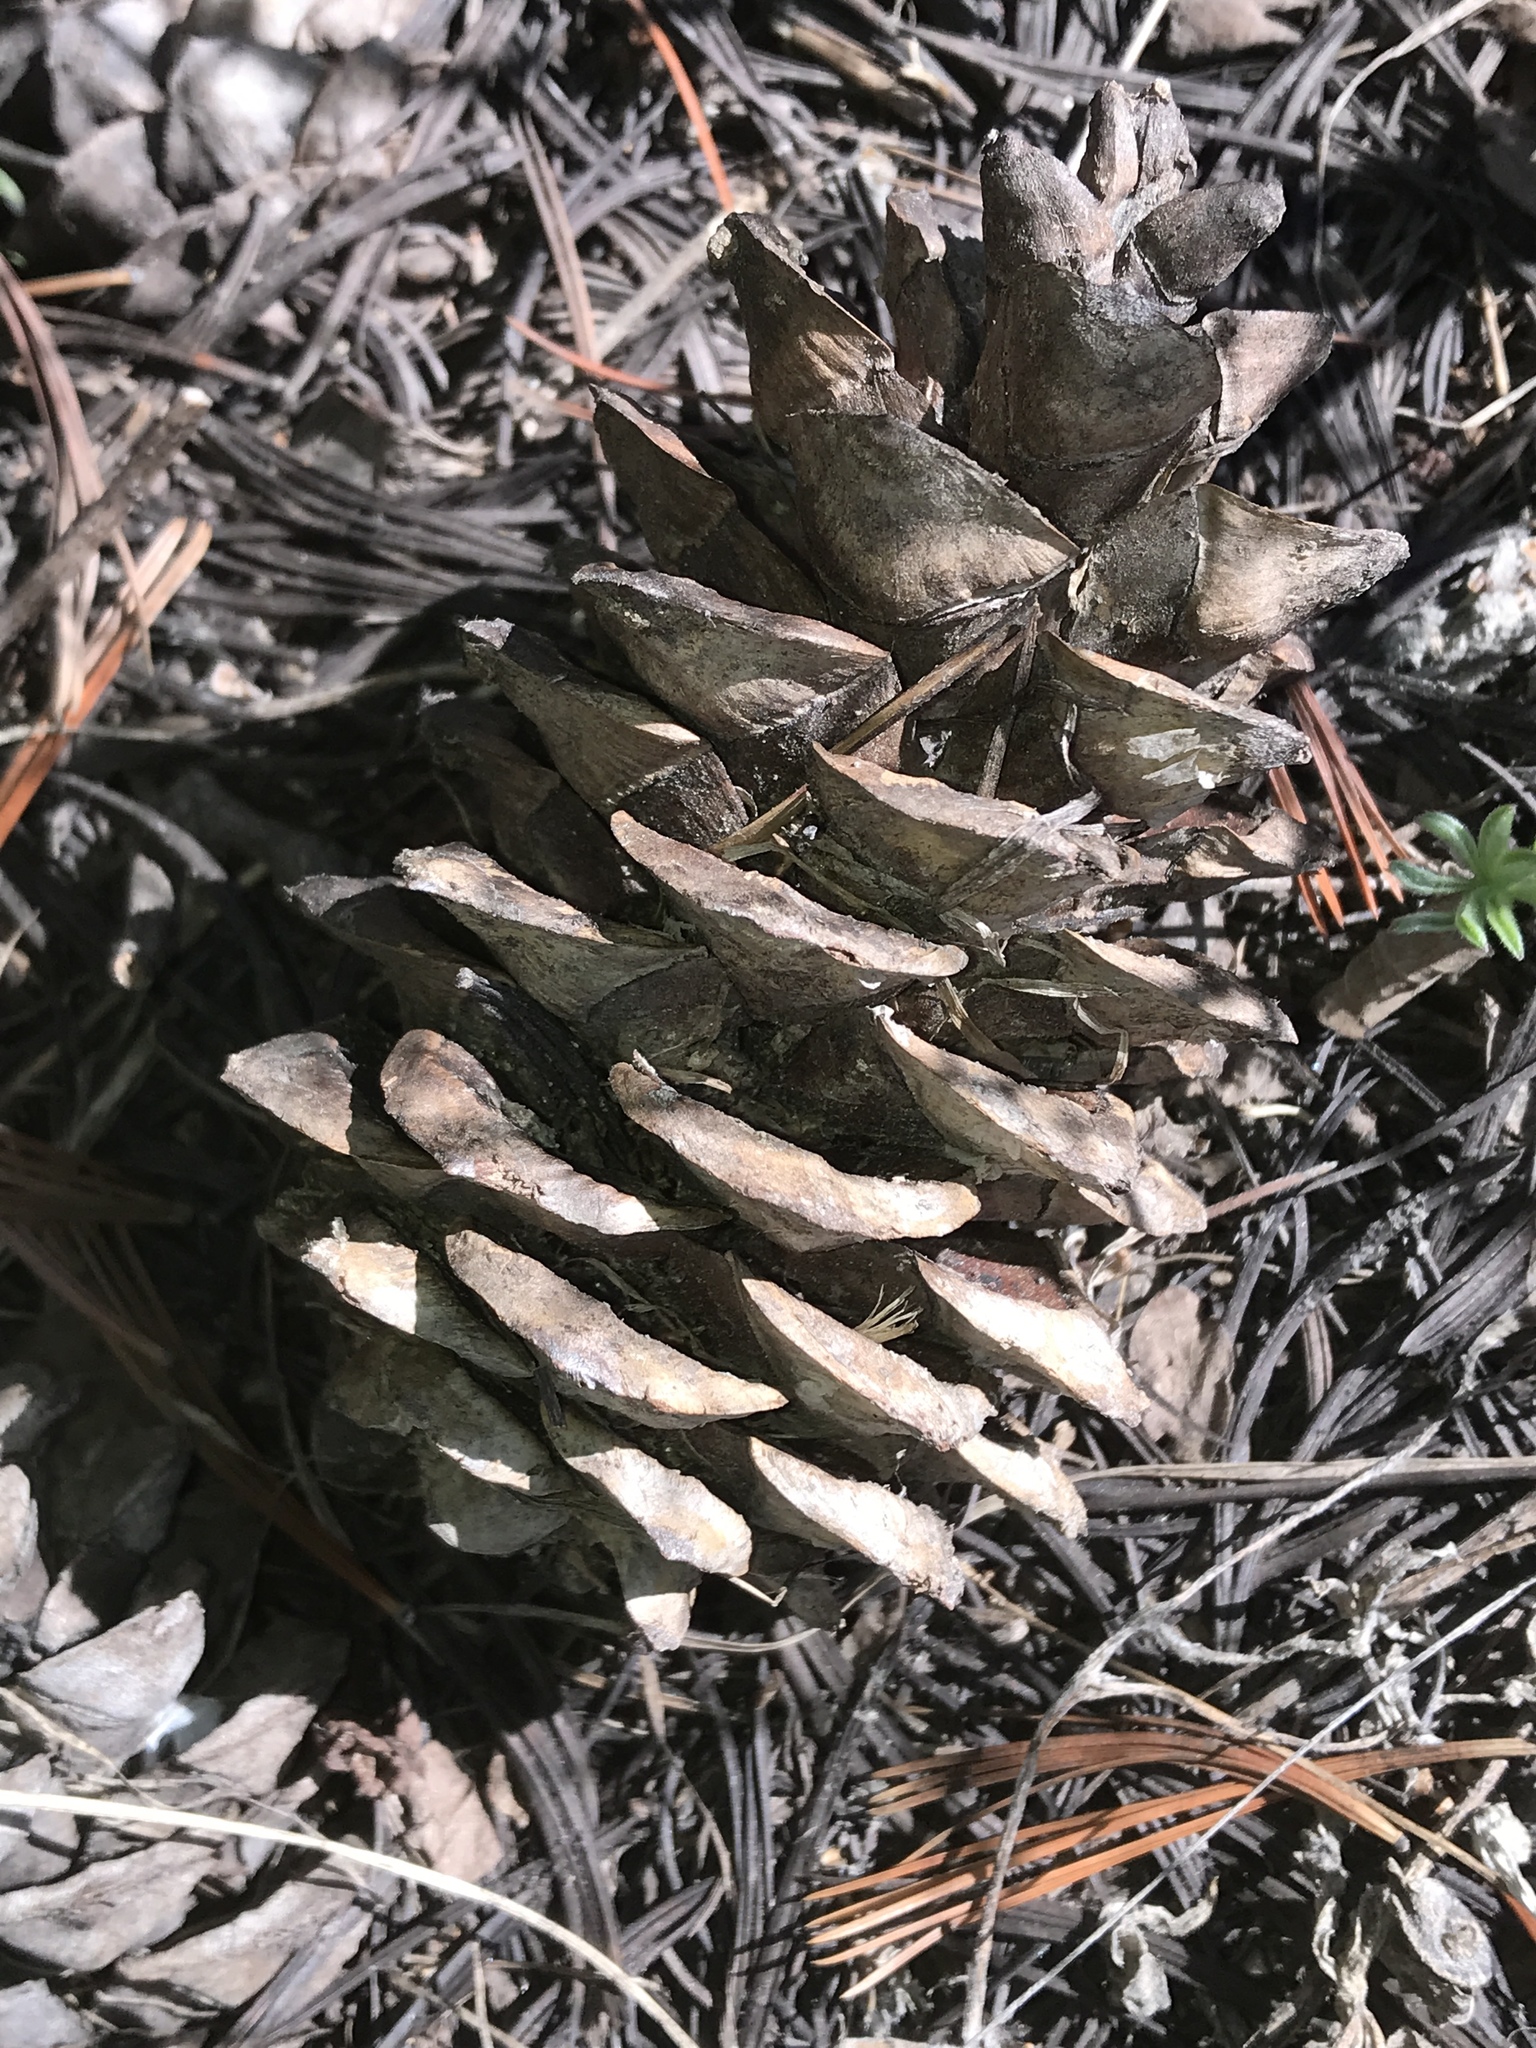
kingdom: Plantae
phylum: Tracheophyta
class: Pinopsida
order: Pinales
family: Pinaceae
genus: Pinus
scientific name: Pinus flexilis
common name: Limber pine
